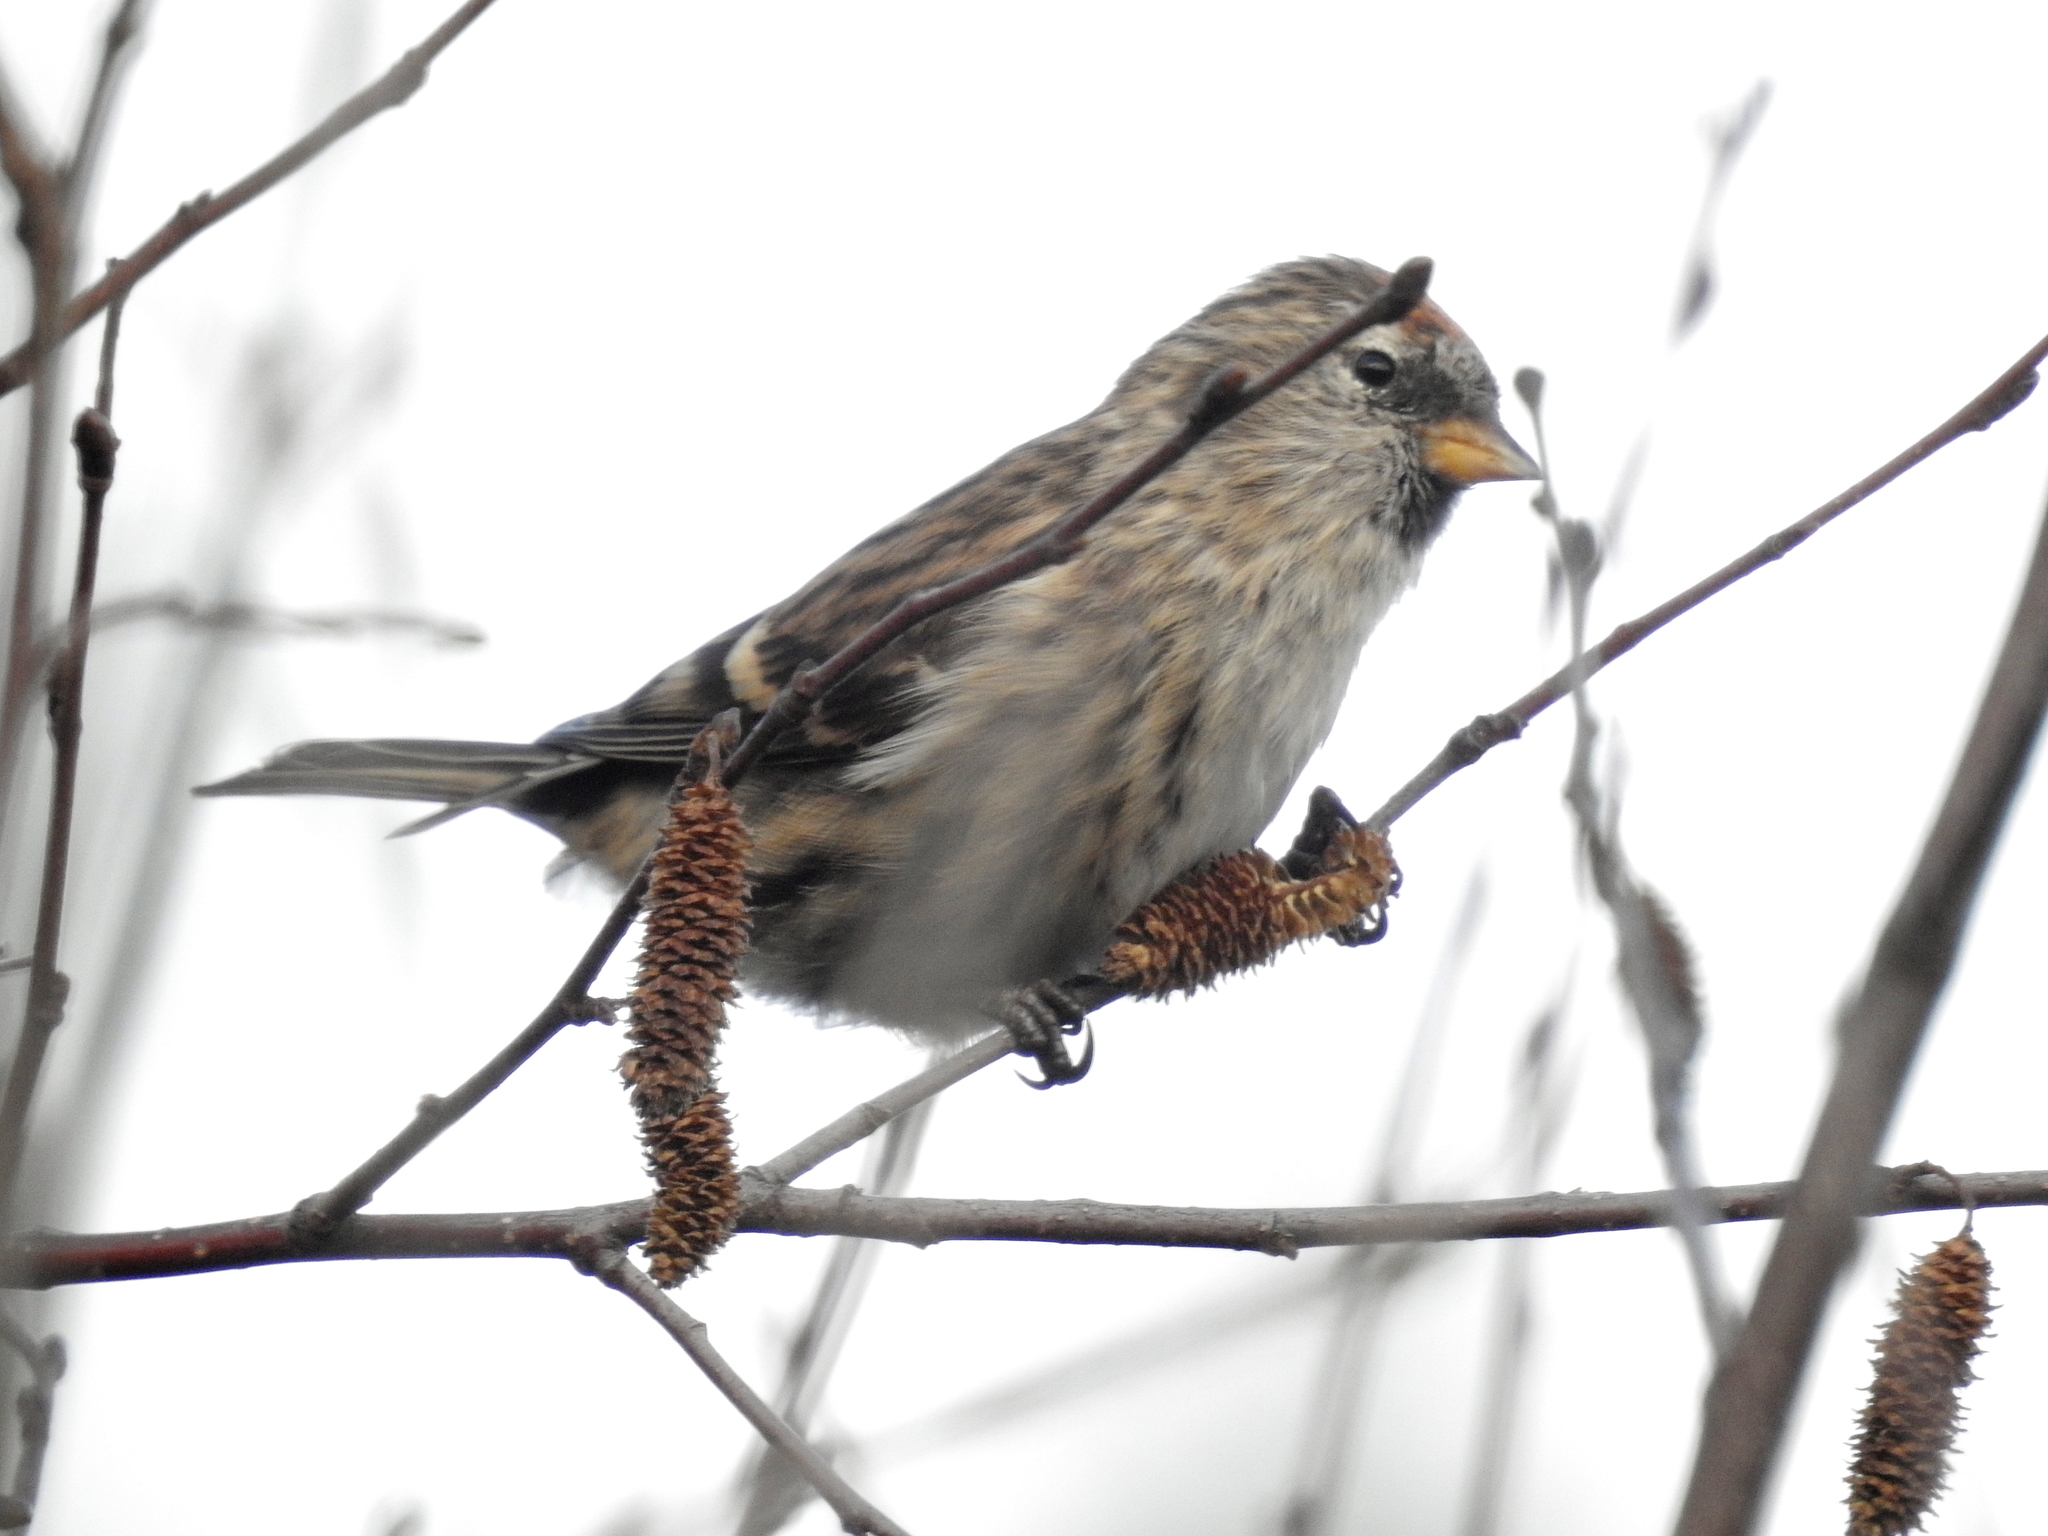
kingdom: Animalia
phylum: Chordata
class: Aves
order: Passeriformes
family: Fringillidae
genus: Acanthis
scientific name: Acanthis flammea
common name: Common redpoll
